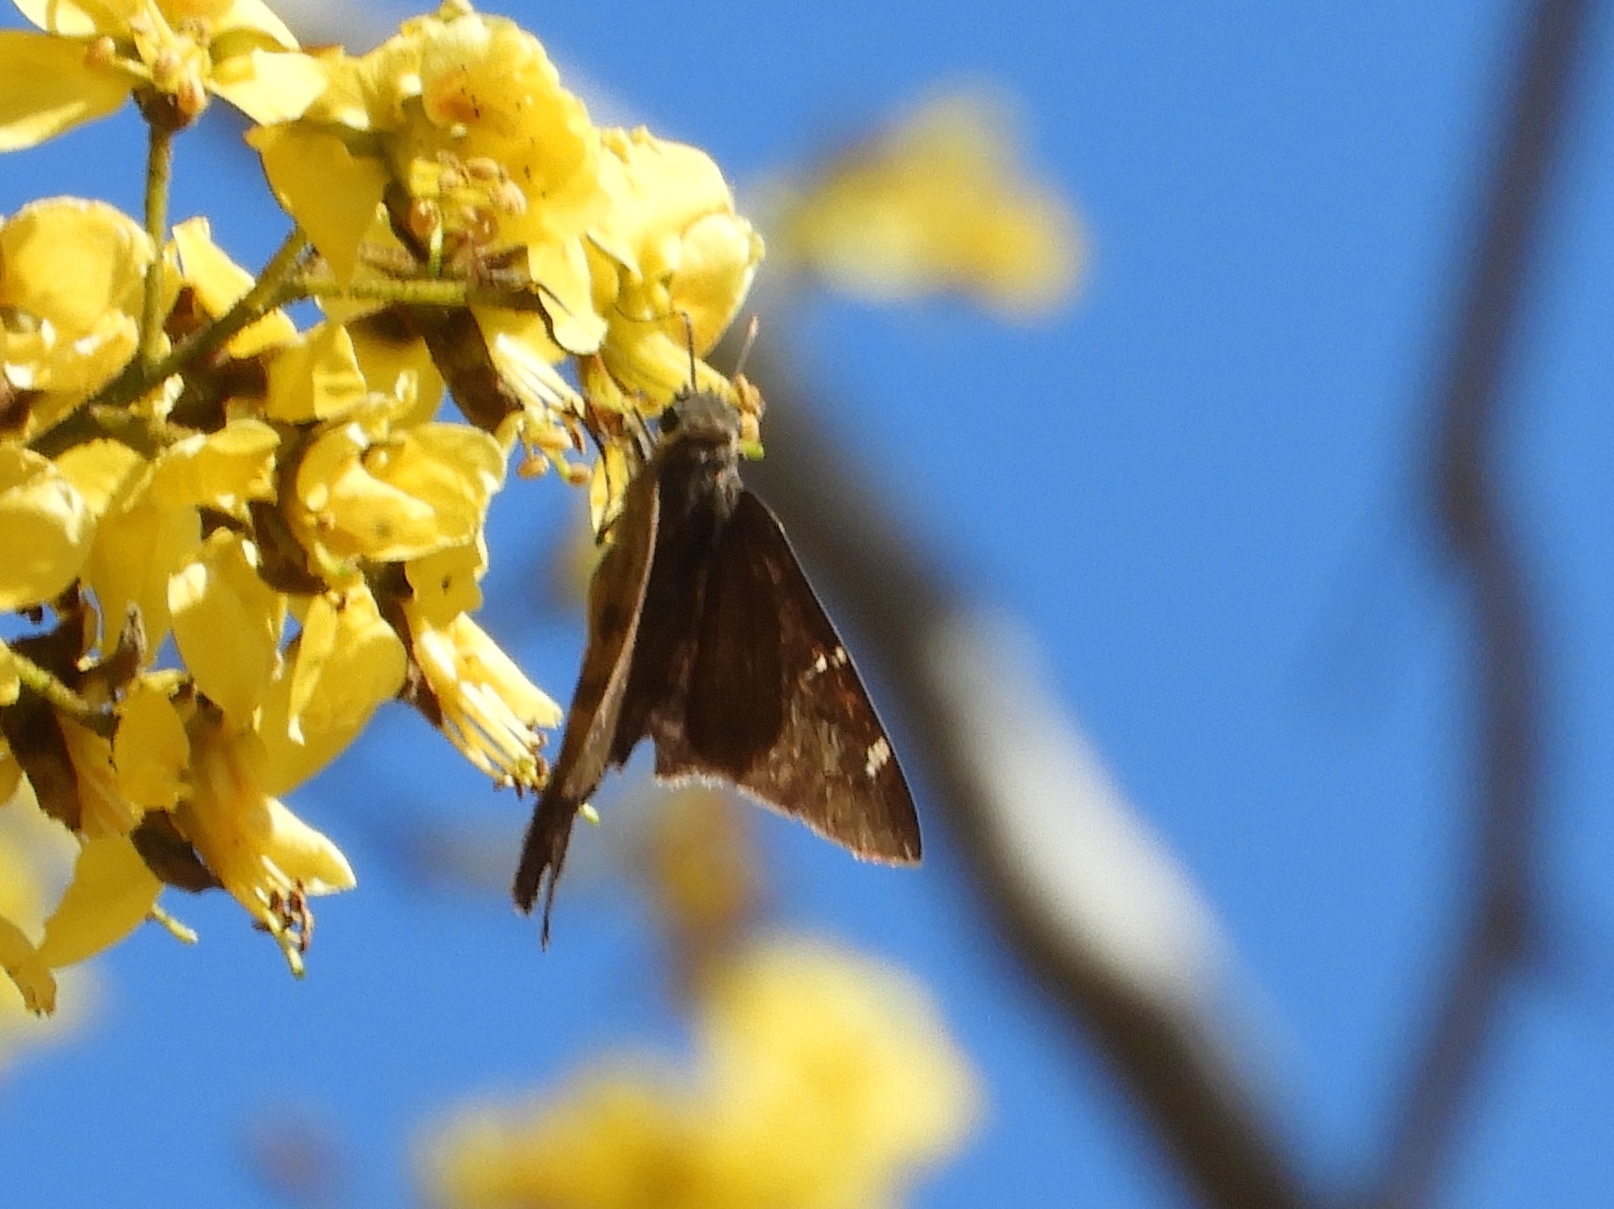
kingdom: Animalia
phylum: Arthropoda
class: Insecta
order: Lepidoptera
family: Hesperiidae
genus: Urbanus
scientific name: Urbanus procne
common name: Brown longtail
